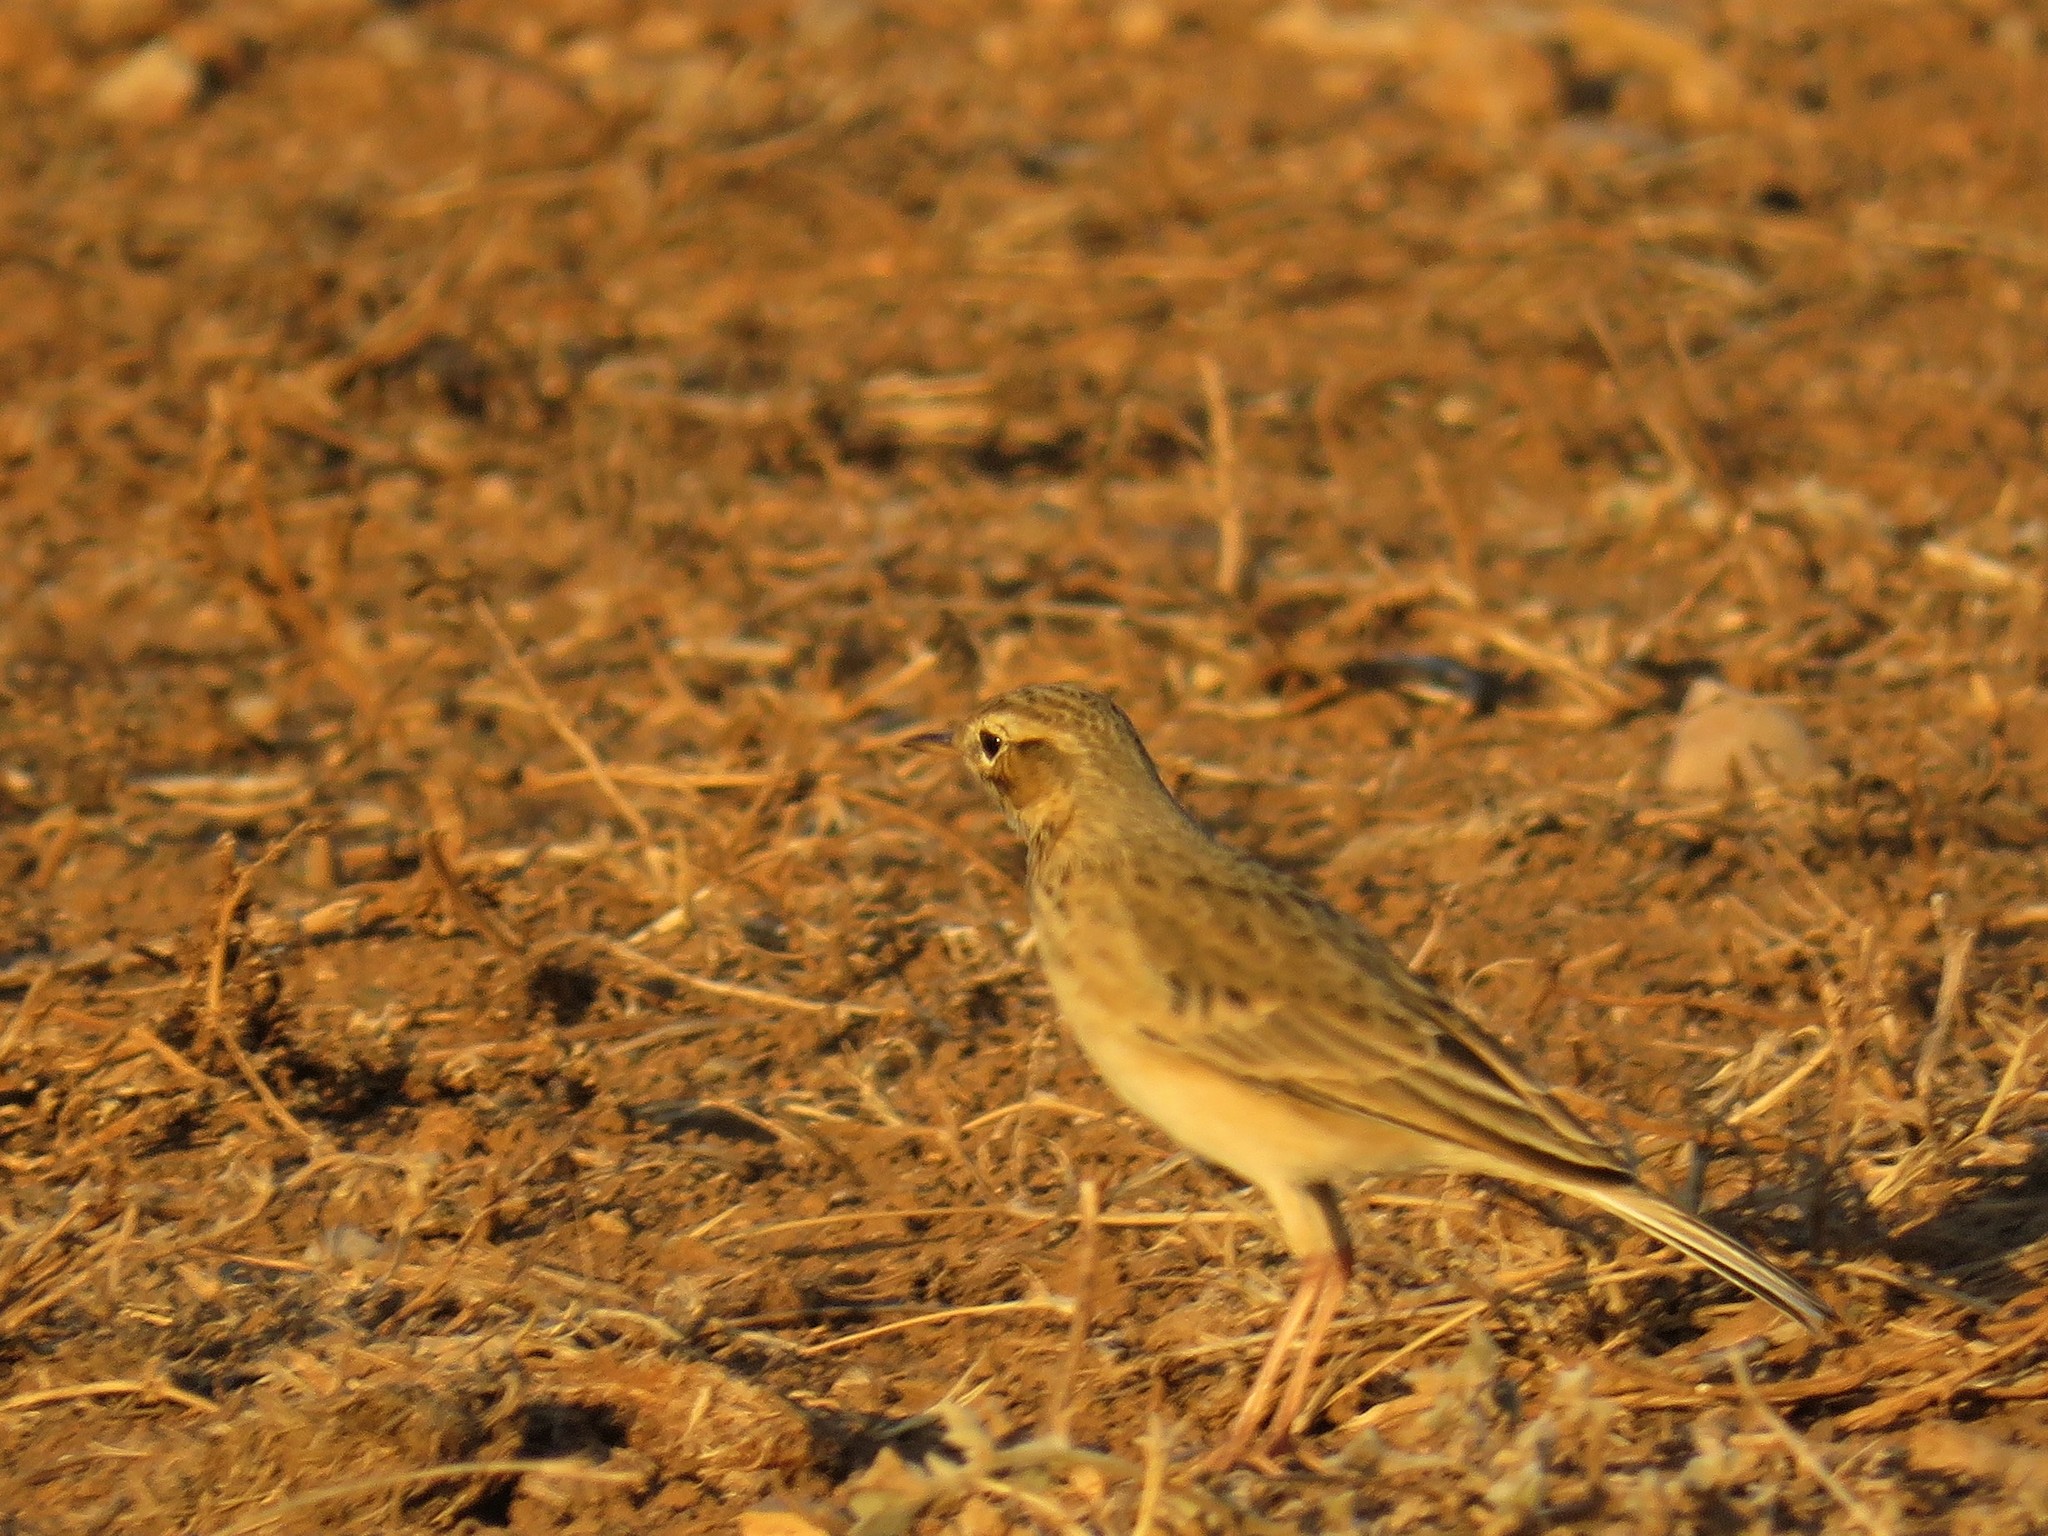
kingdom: Animalia
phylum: Chordata
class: Aves
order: Passeriformes
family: Motacillidae
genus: Anthus
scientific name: Anthus cinnamomeus
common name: African pipit
